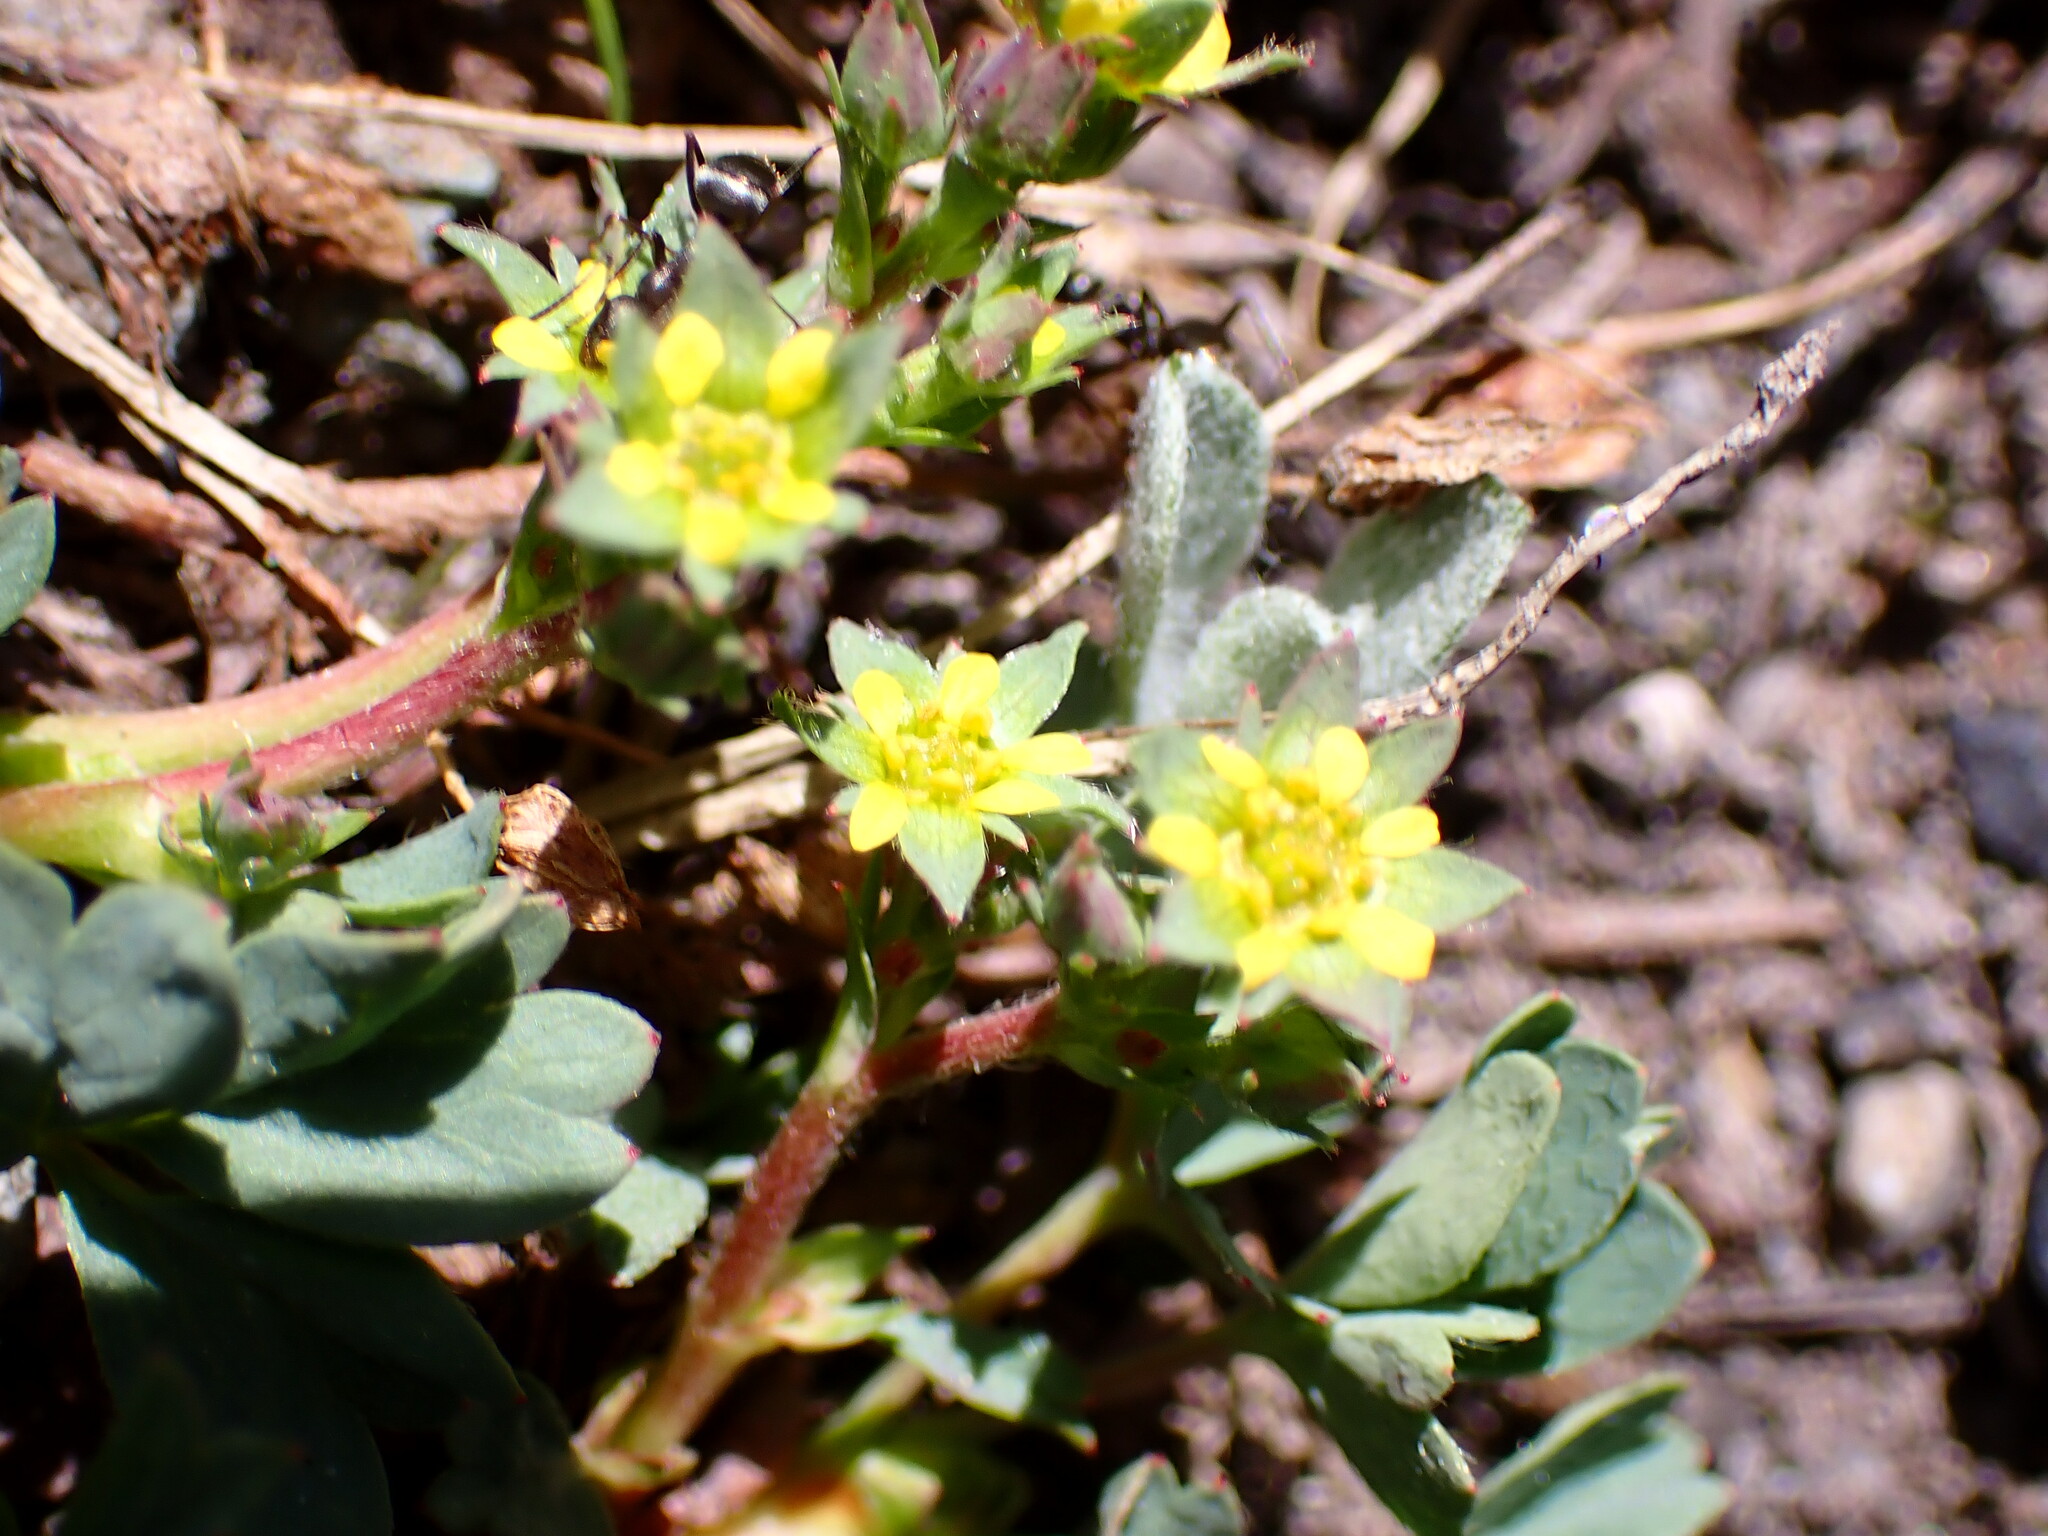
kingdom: Plantae
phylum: Tracheophyta
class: Magnoliopsida
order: Rosales
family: Rosaceae
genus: Sibbaldia
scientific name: Sibbaldia procumbens
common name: Creeping sibbaldia
